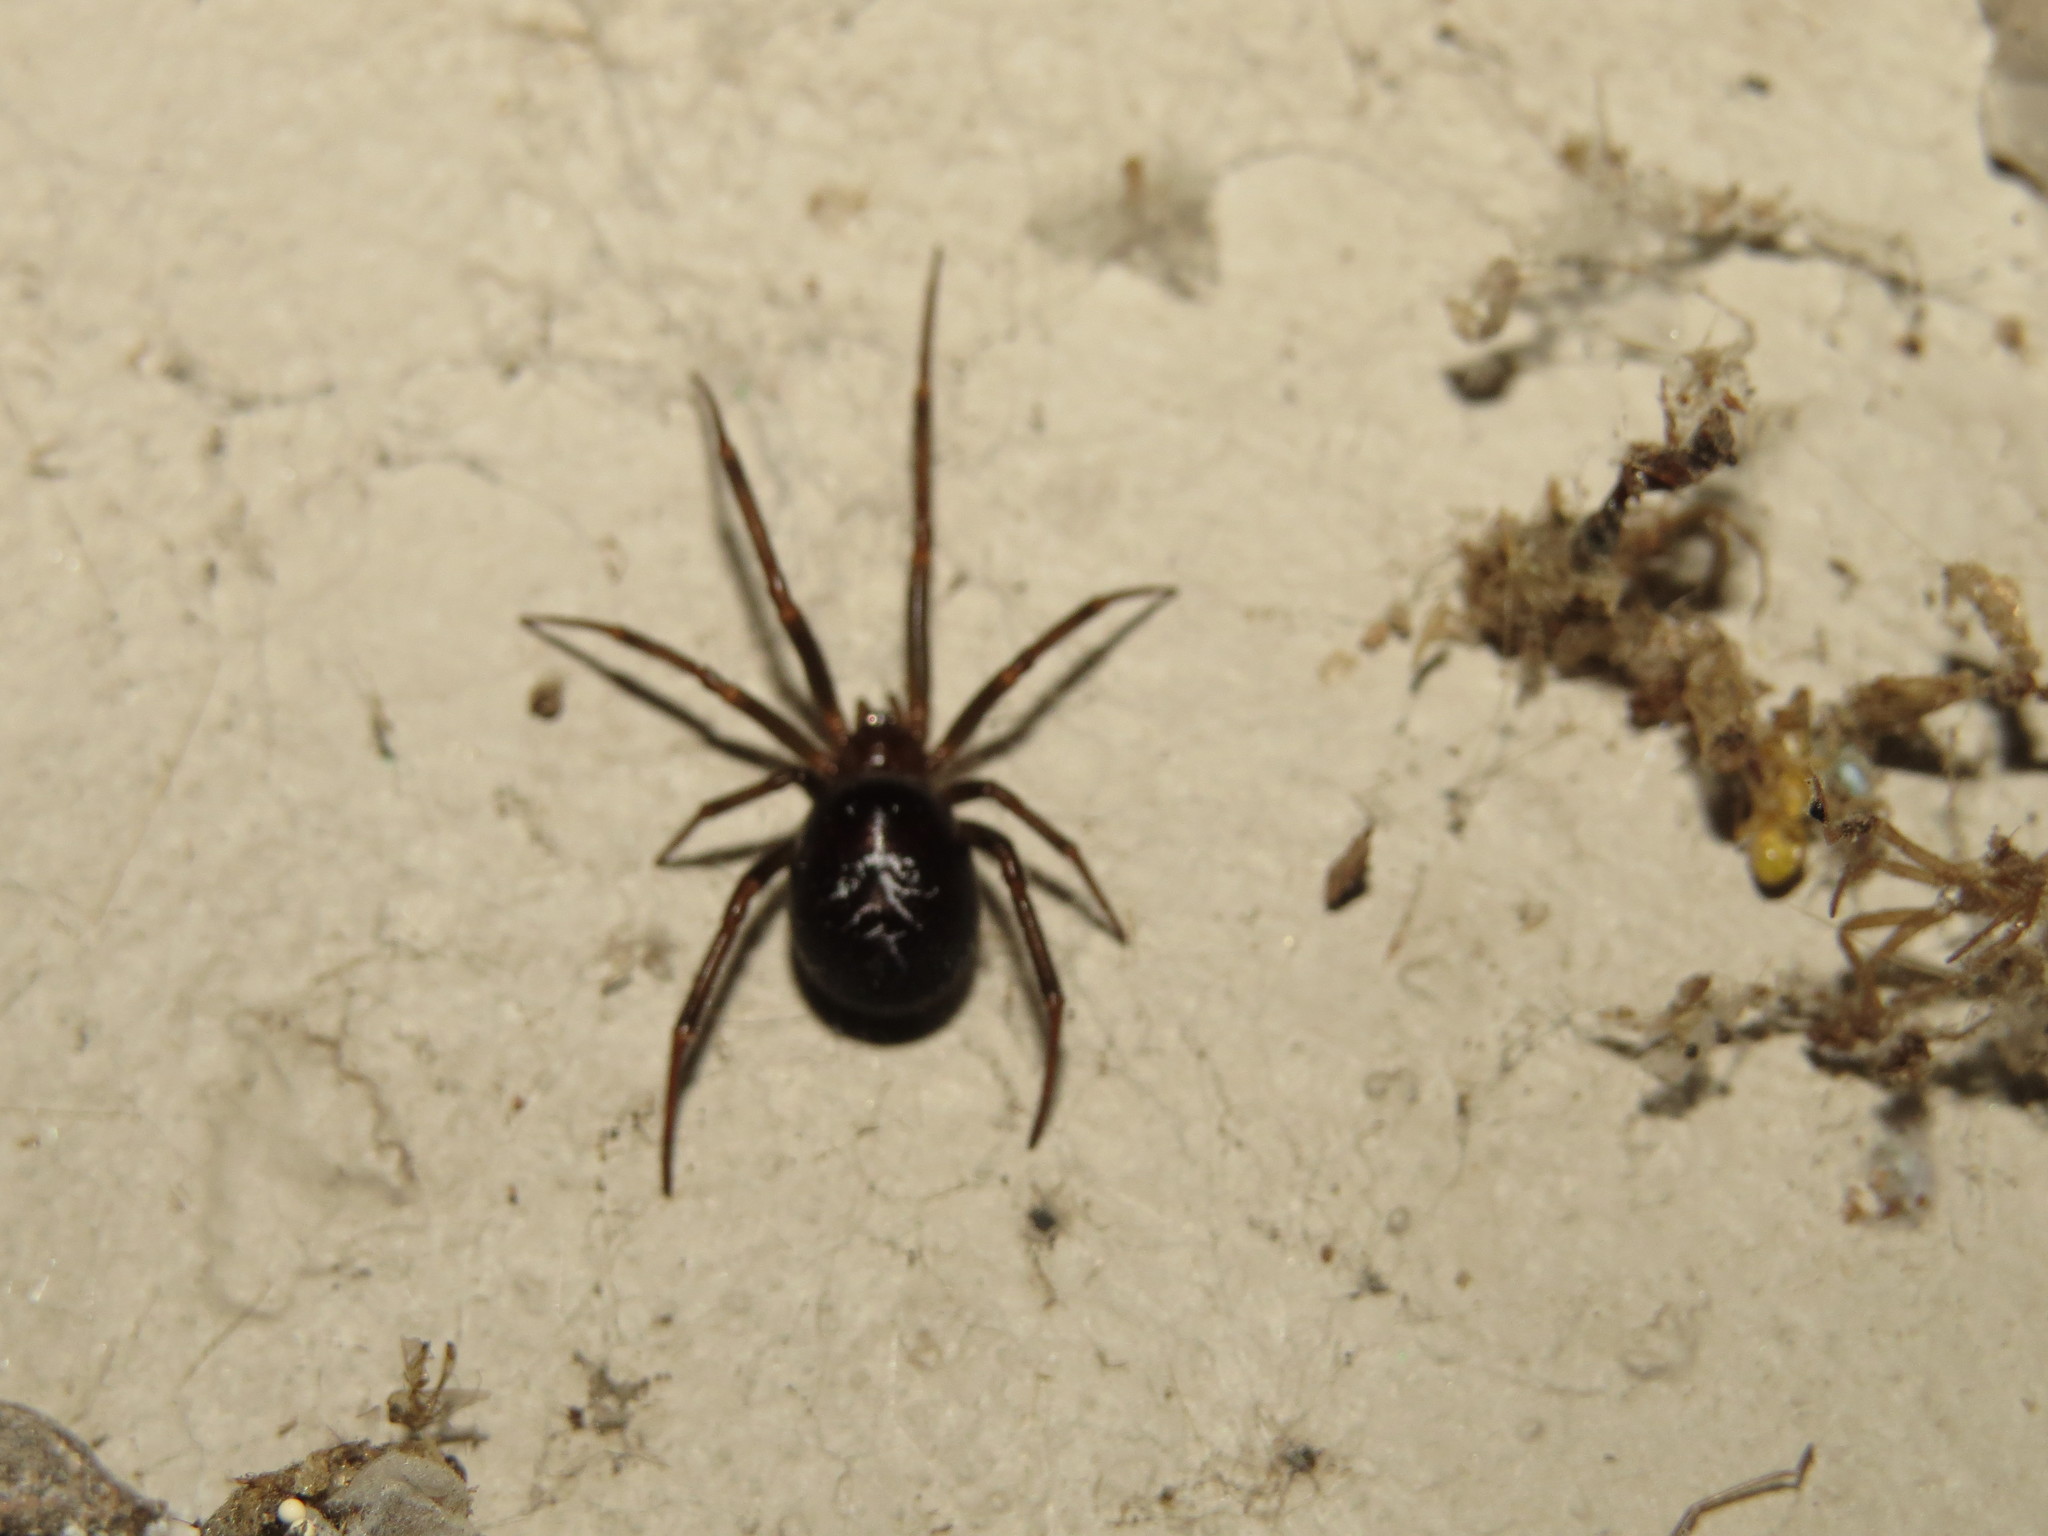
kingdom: Animalia
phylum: Arthropoda
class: Arachnida
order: Araneae
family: Theridiidae
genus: Steatoda
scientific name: Steatoda grossa
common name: False black widow
